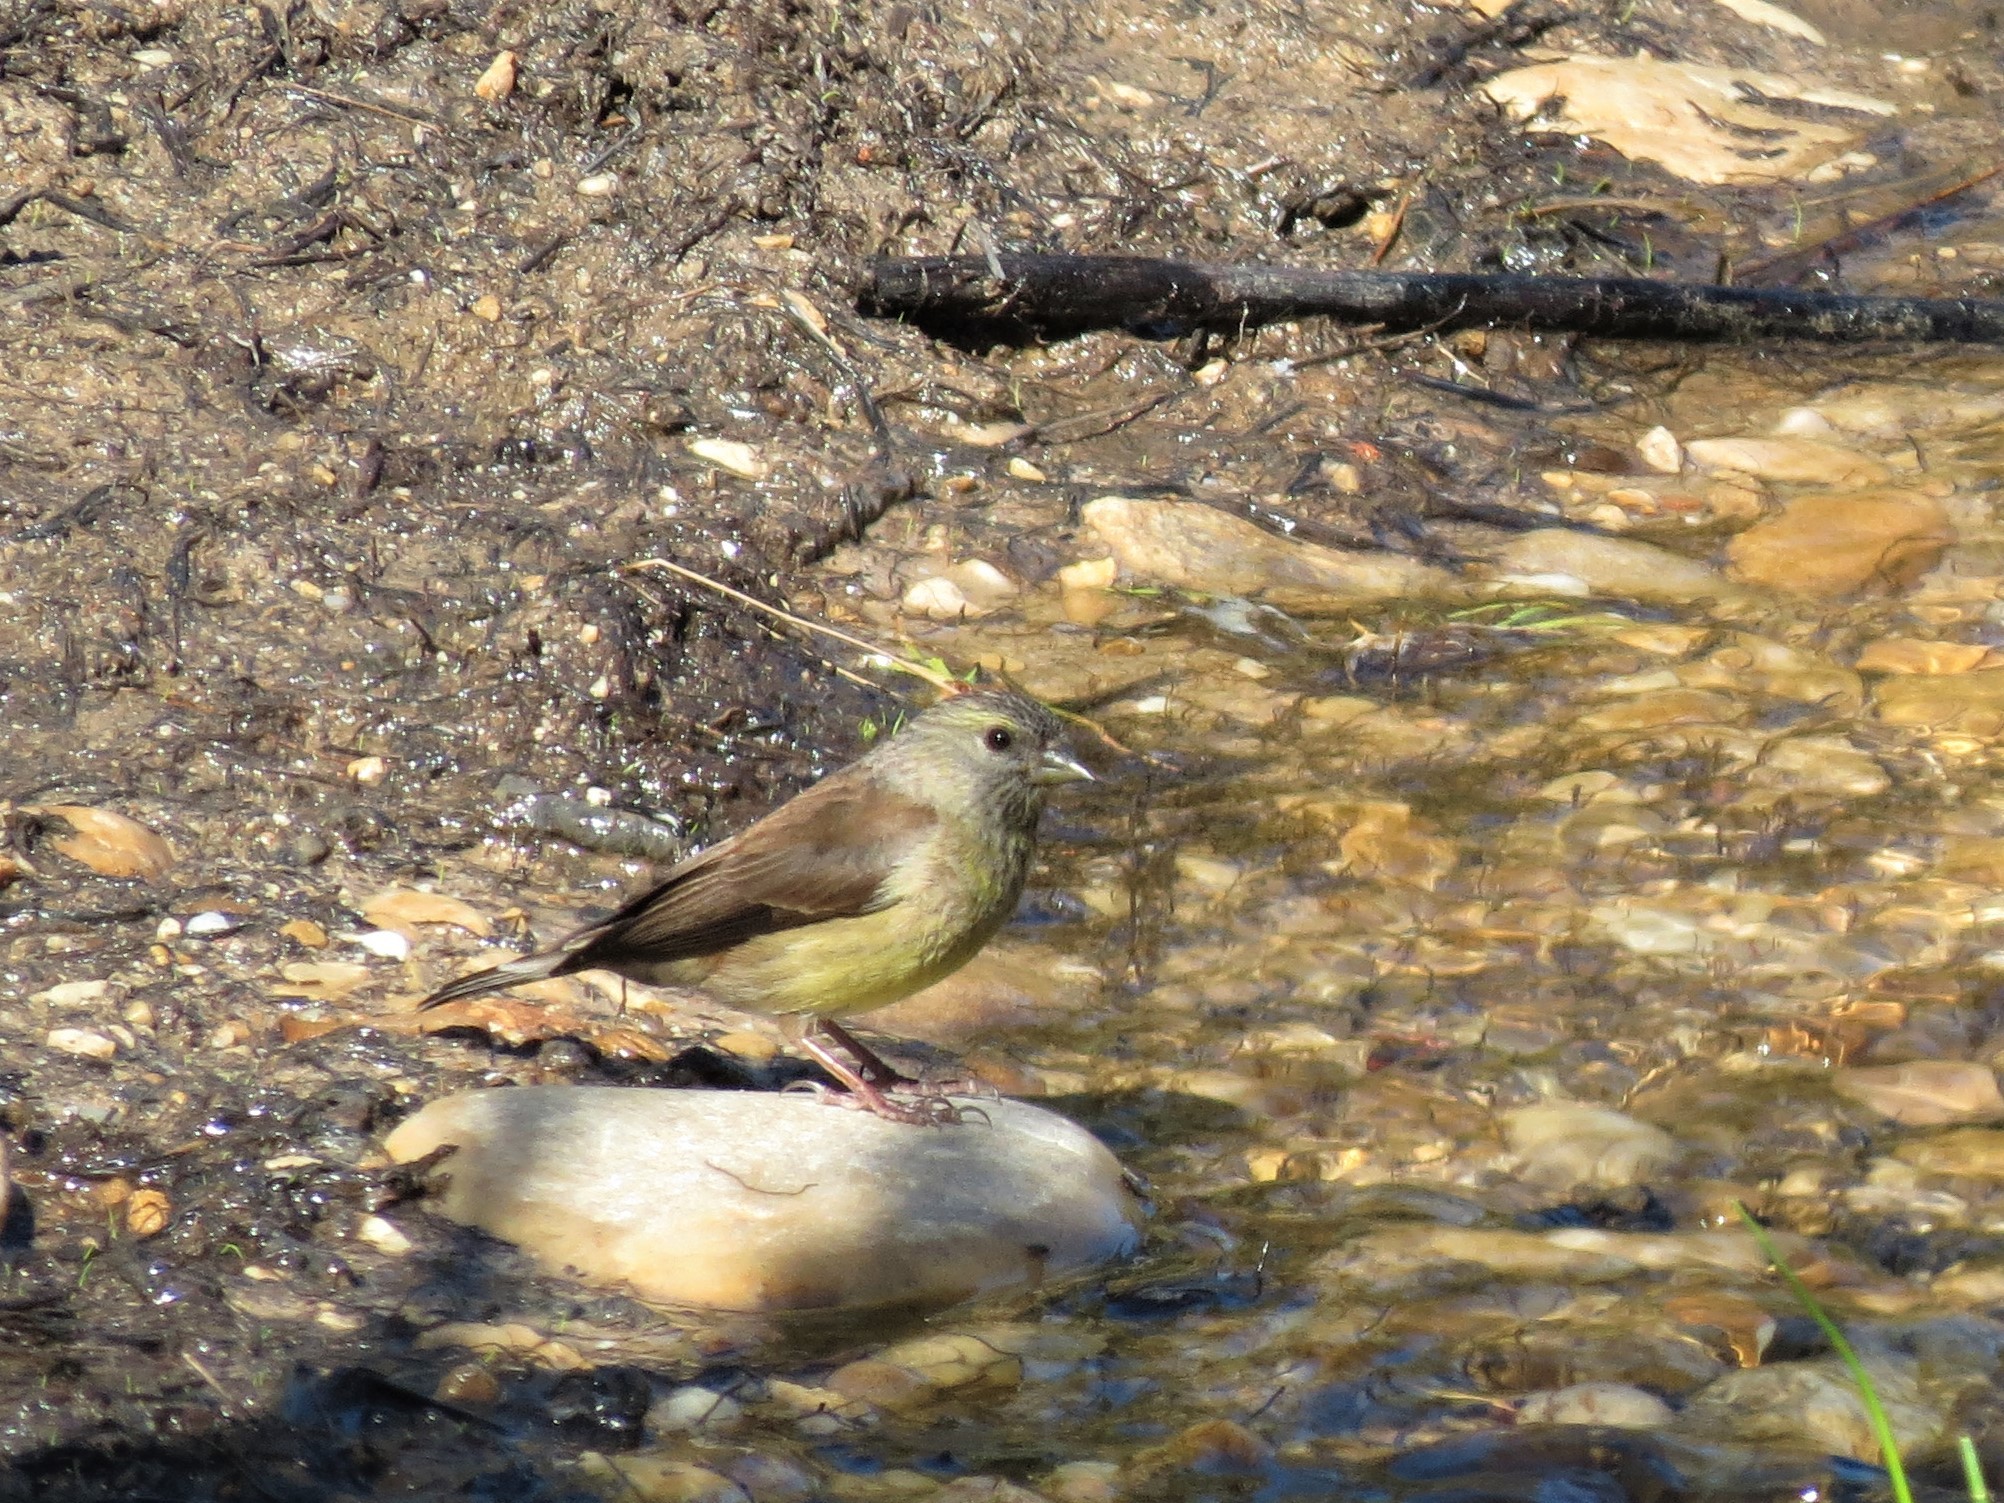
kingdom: Animalia
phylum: Chordata
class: Aves
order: Passeriformes
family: Fringillidae
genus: Crithagra
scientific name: Crithagra totta
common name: Cape siskin
